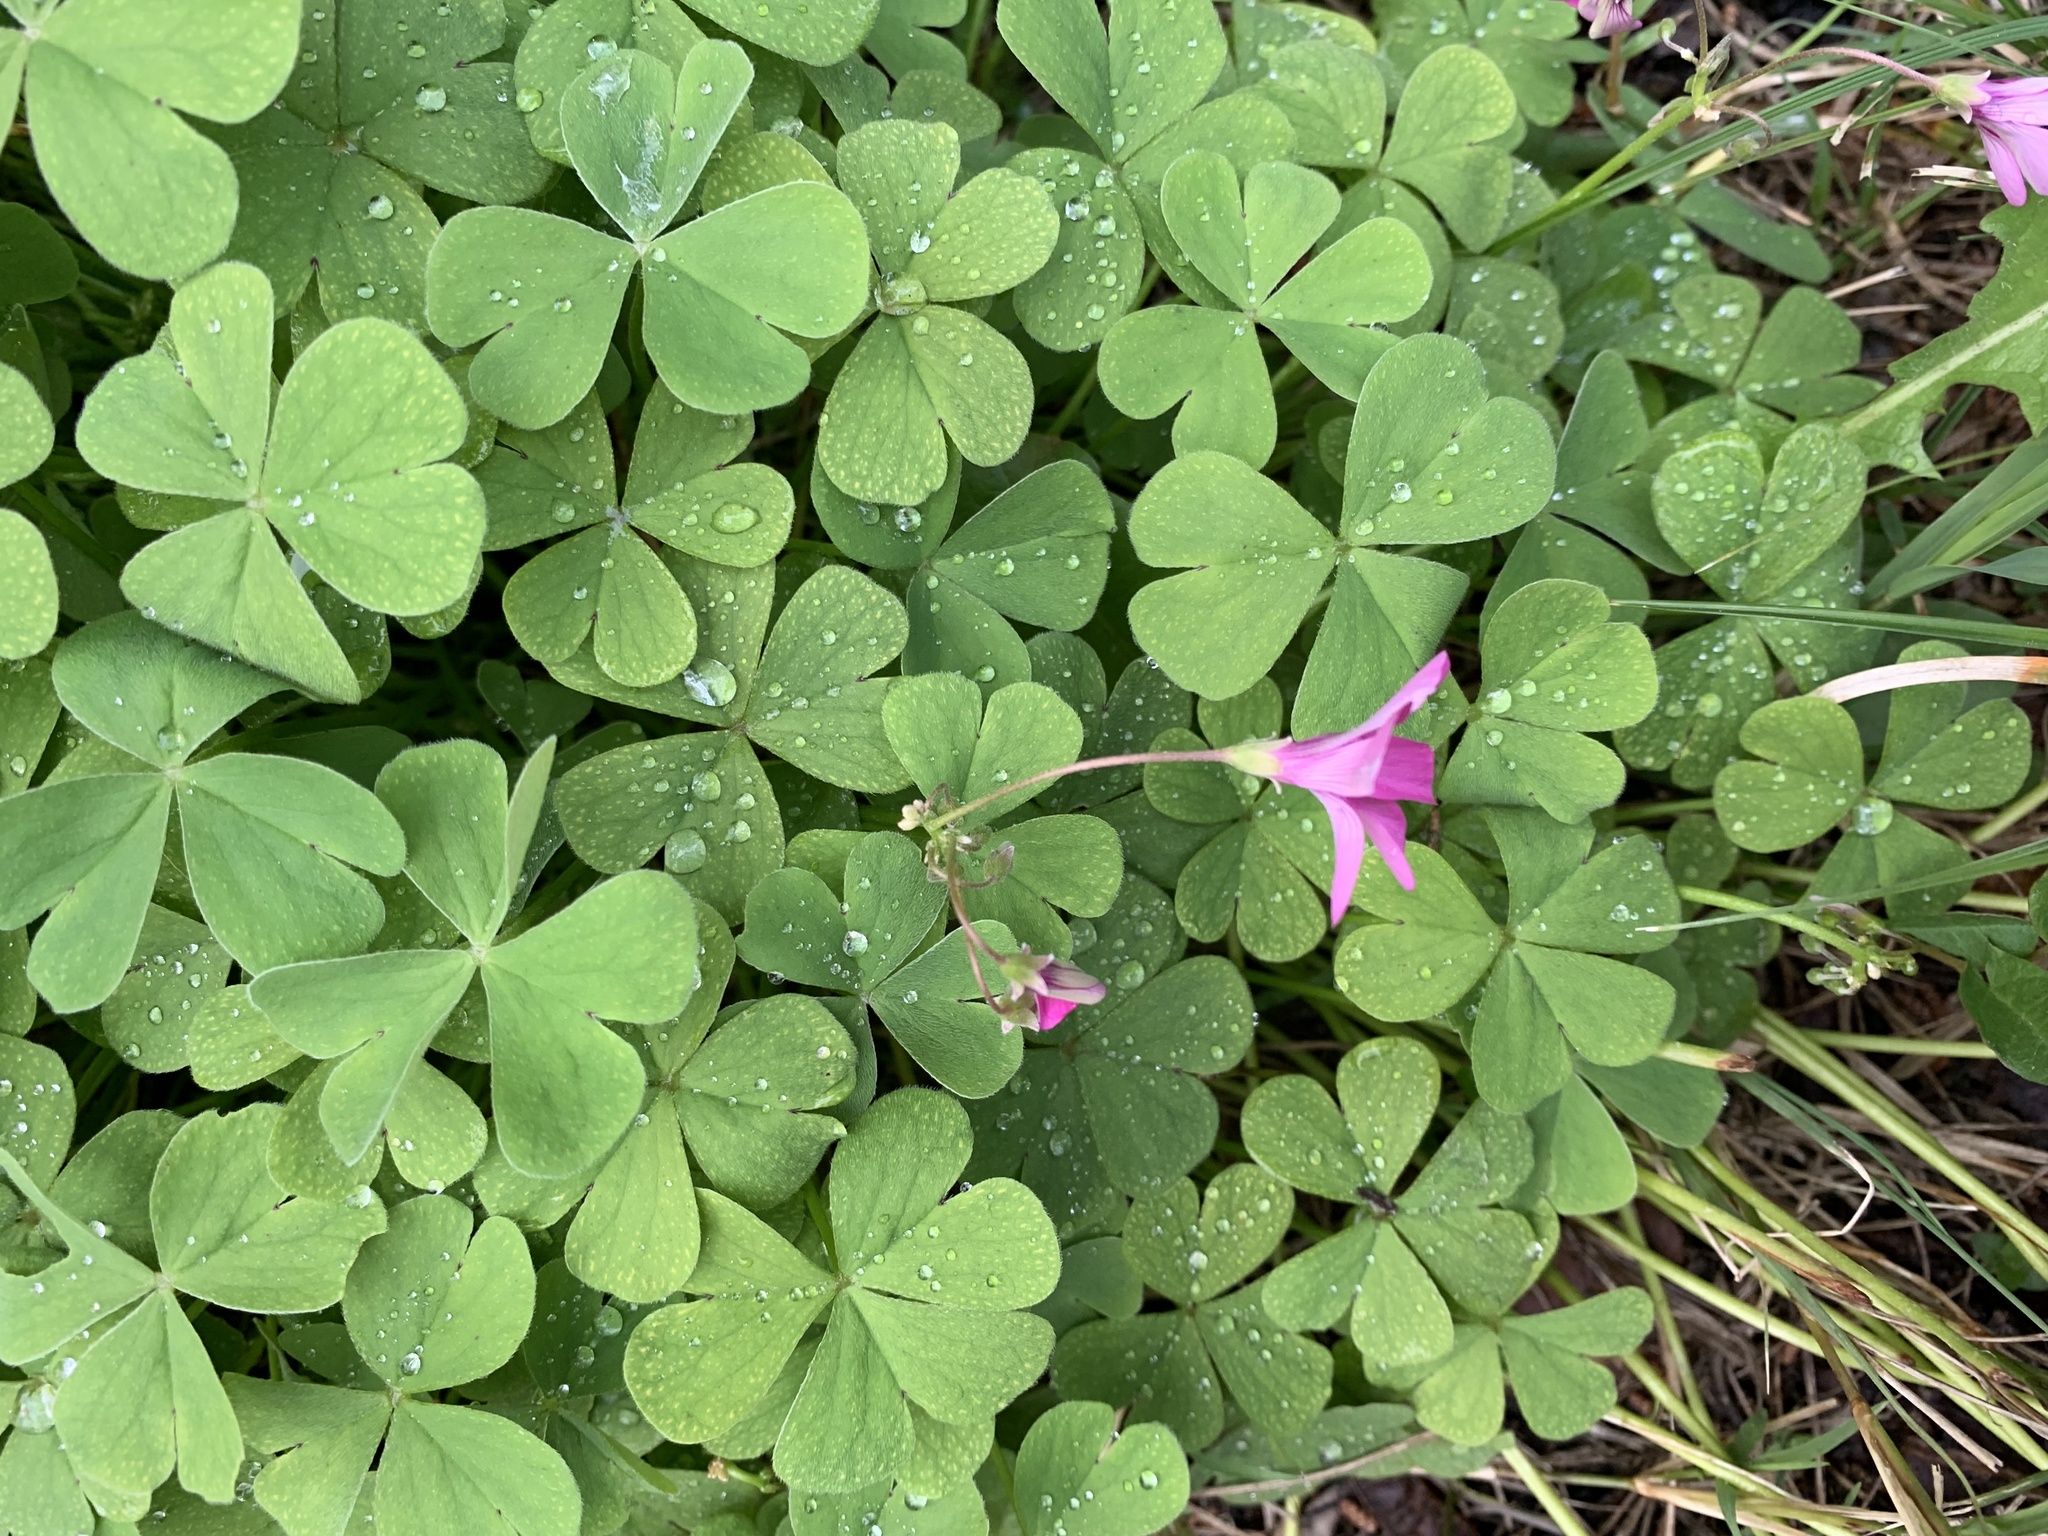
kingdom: Plantae
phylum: Tracheophyta
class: Magnoliopsida
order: Oxalidales
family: Oxalidaceae
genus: Oxalis
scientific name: Oxalis articulata
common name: Pink-sorrel
